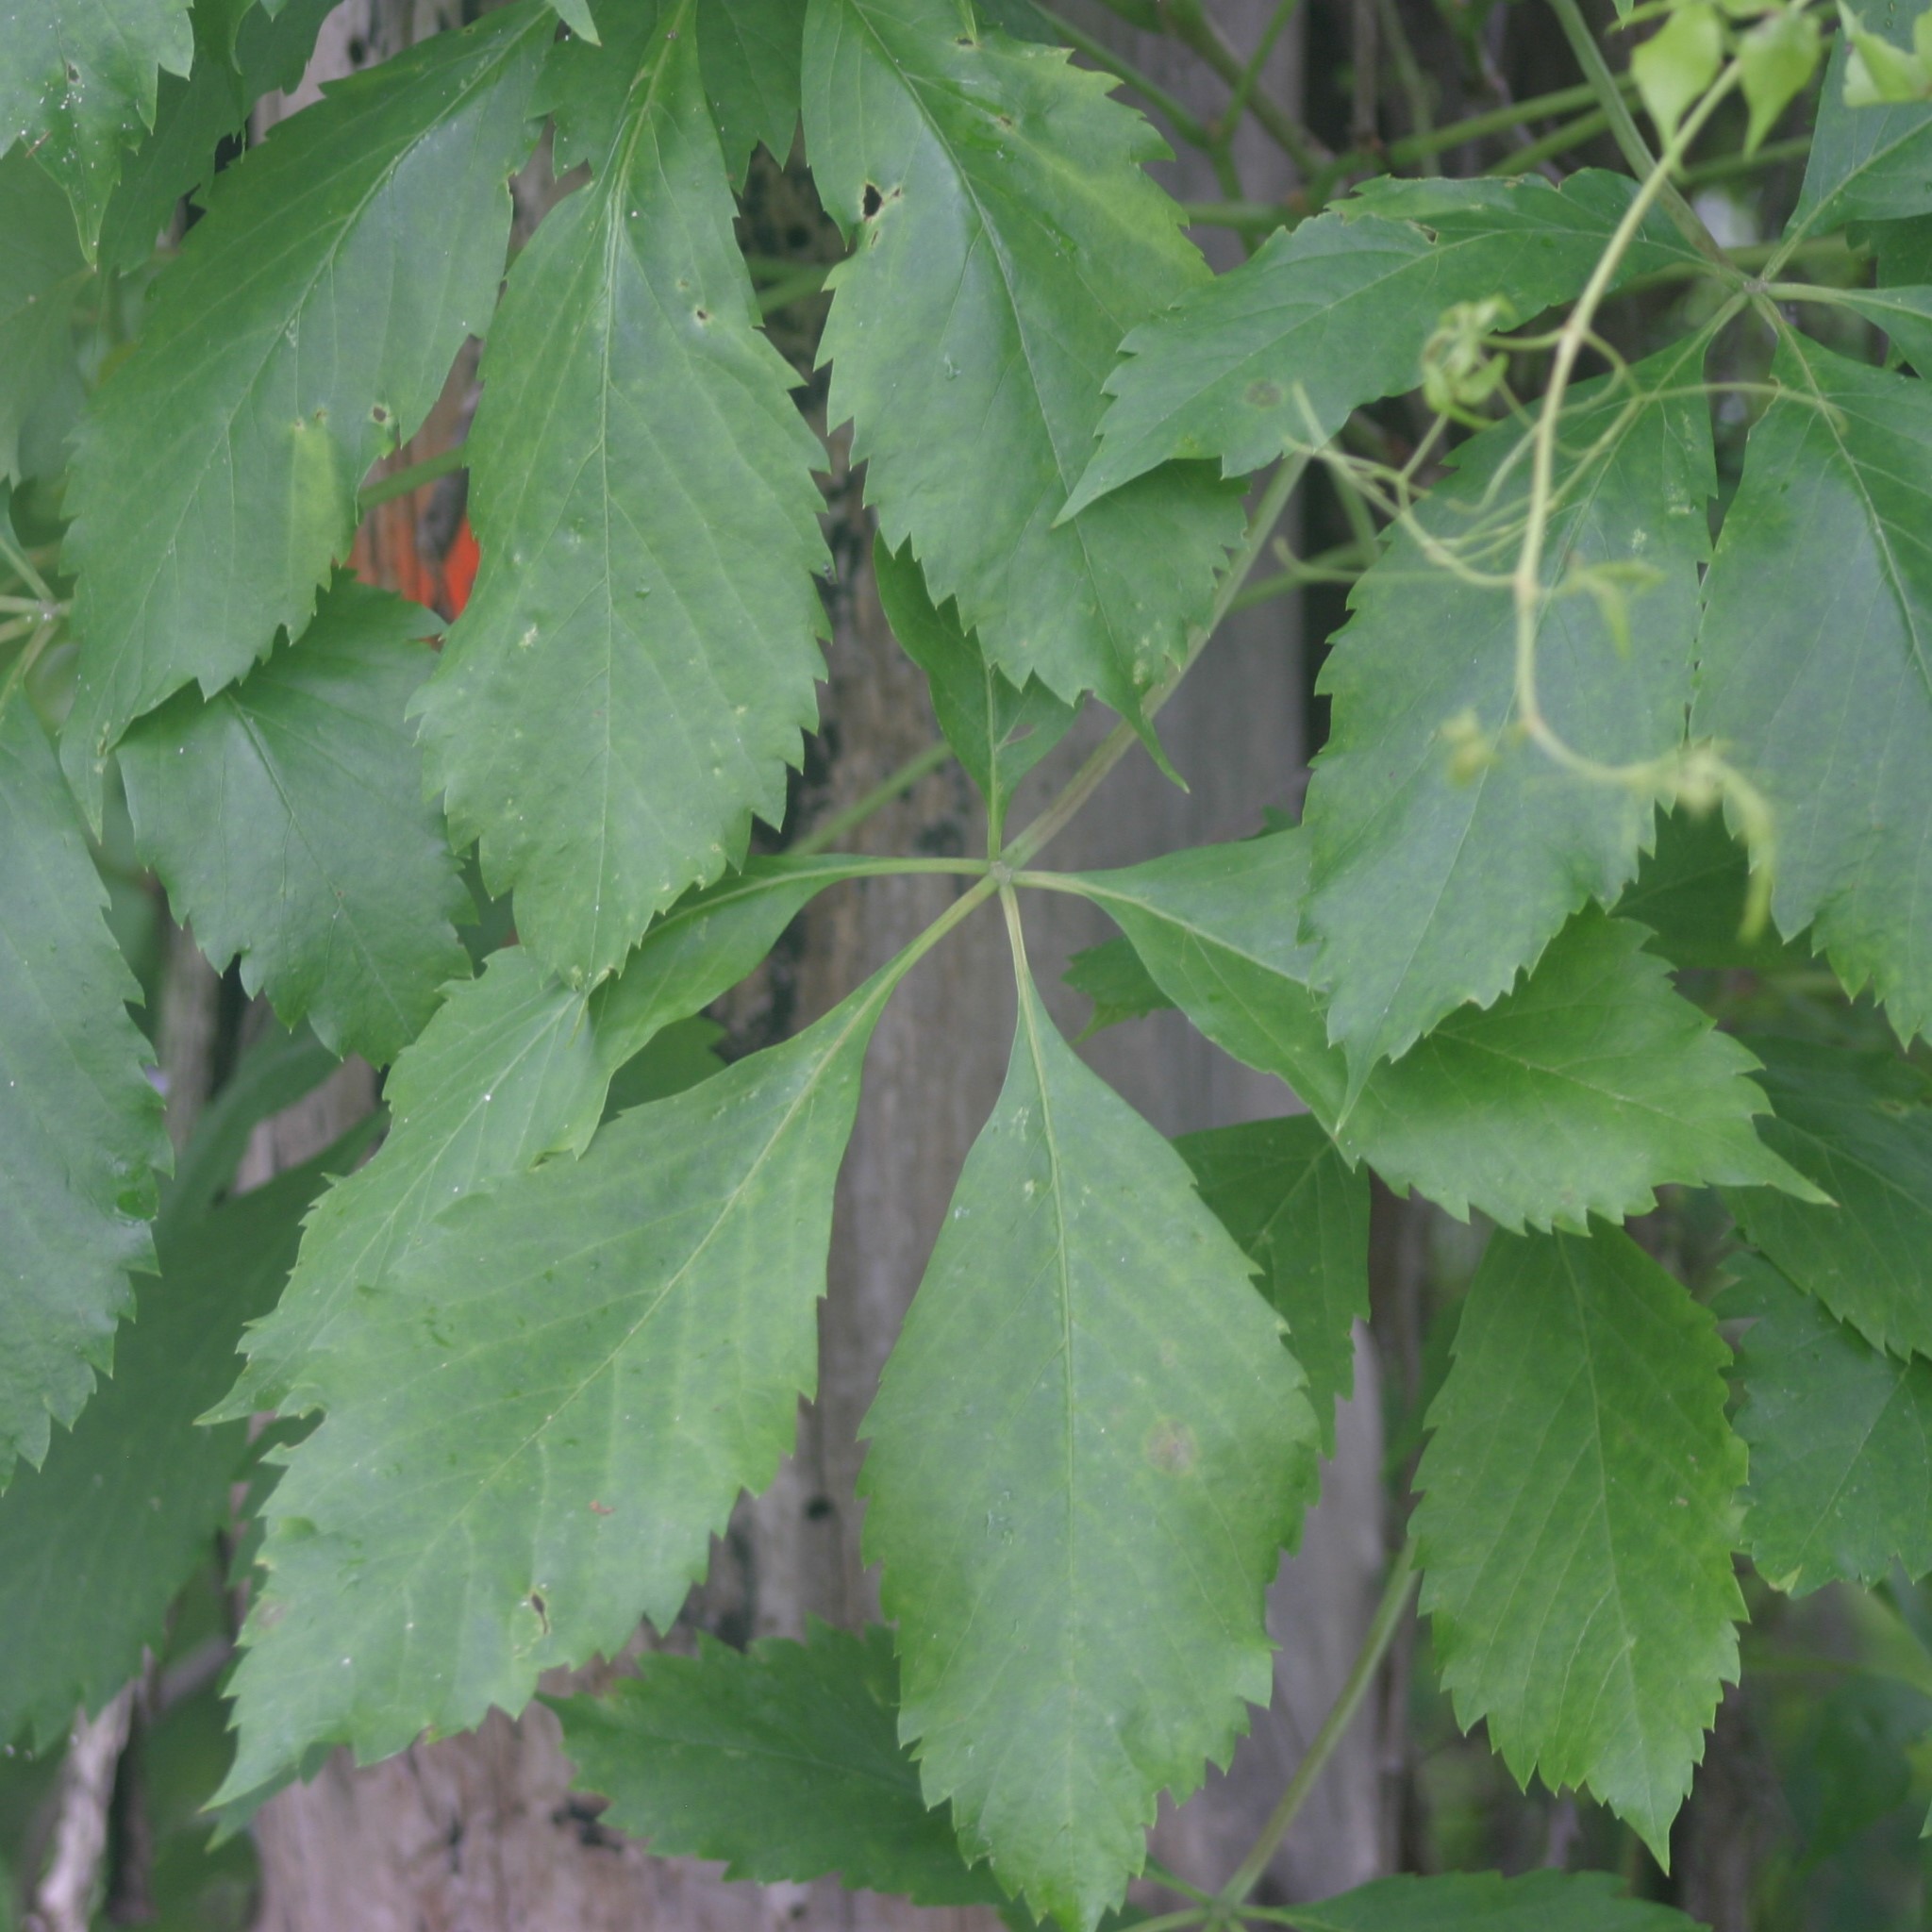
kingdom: Plantae
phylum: Tracheophyta
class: Magnoliopsida
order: Vitales
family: Vitaceae
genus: Parthenocissus
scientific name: Parthenocissus inserta
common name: False virginia-creeper
